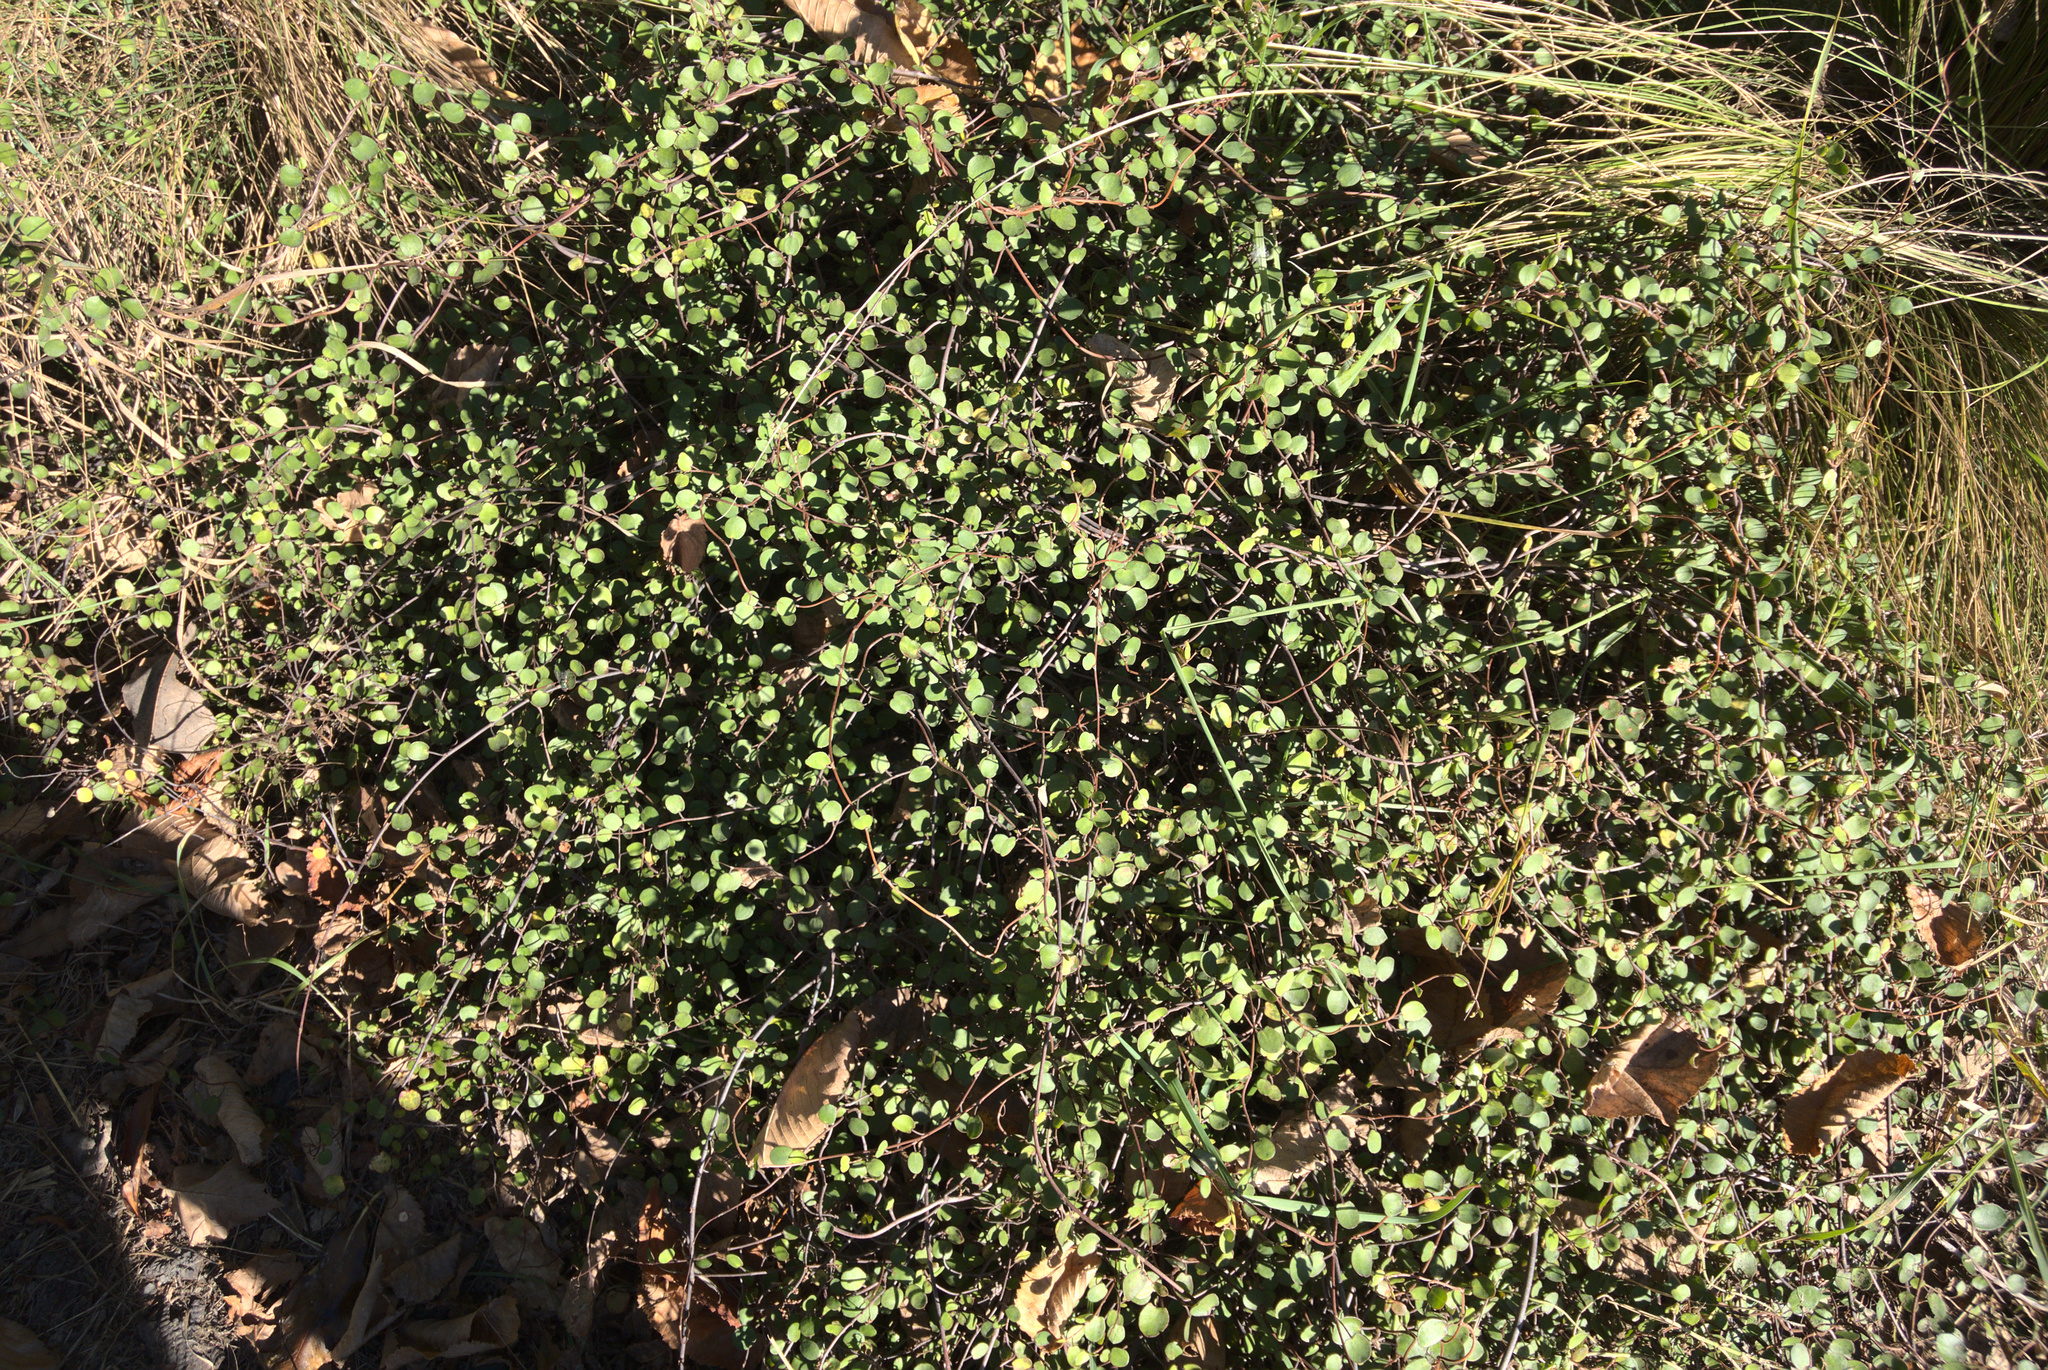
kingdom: Plantae
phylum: Tracheophyta
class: Magnoliopsida
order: Caryophyllales
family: Polygonaceae
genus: Muehlenbeckia
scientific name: Muehlenbeckia complexa
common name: Wireplant
